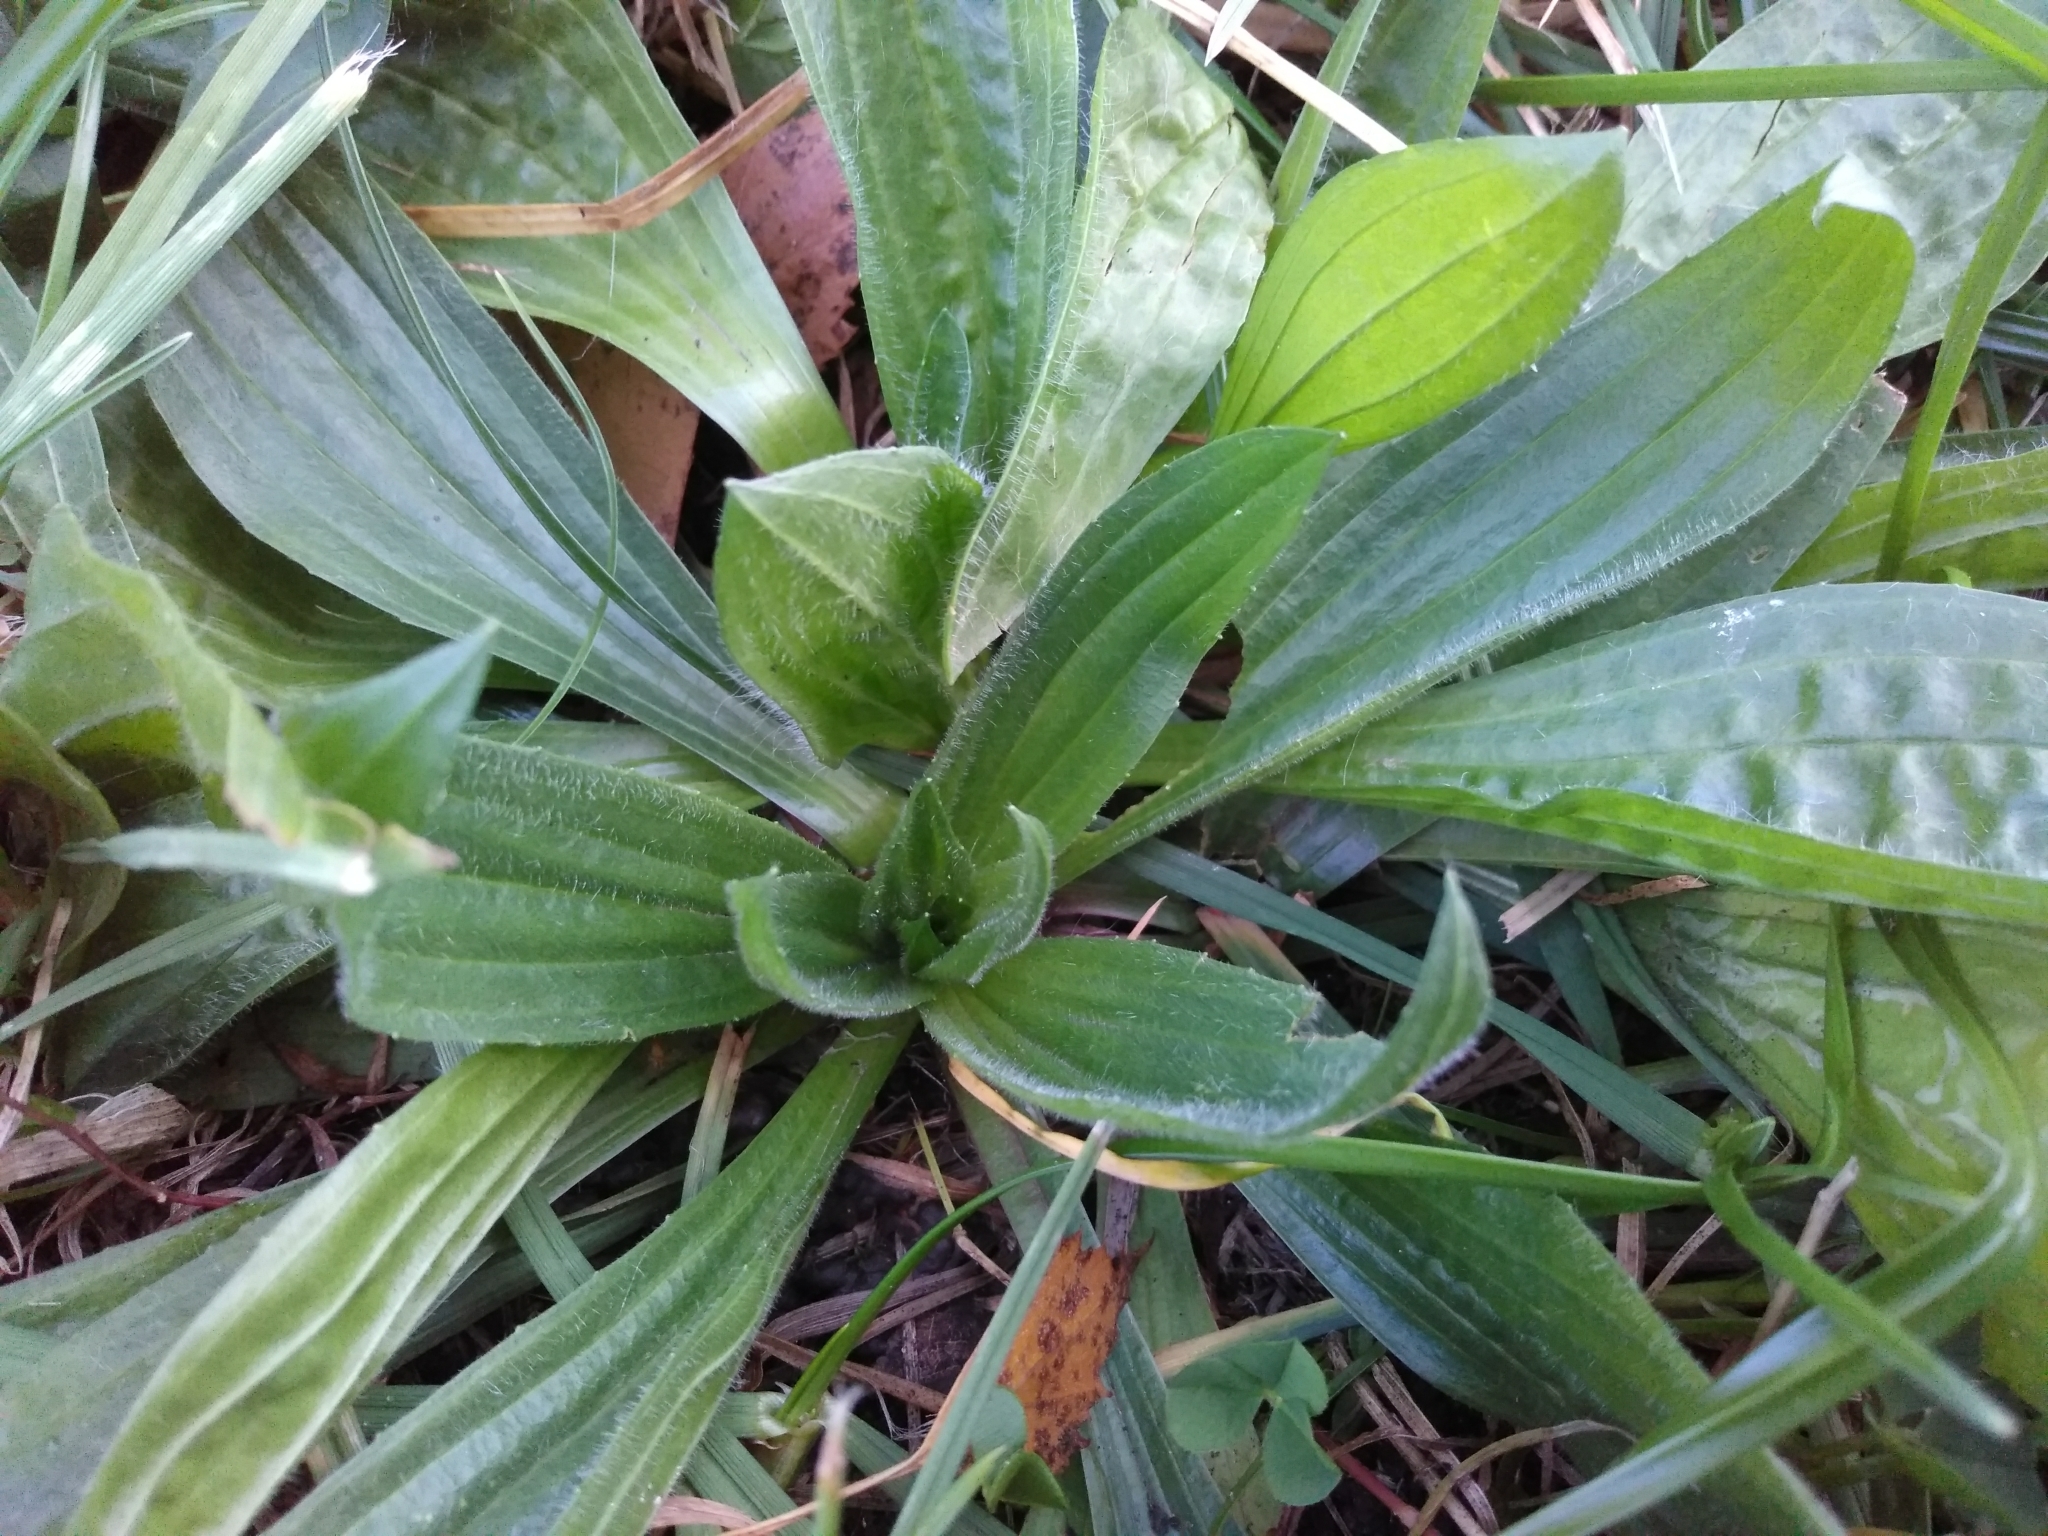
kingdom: Plantae
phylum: Tracheophyta
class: Magnoliopsida
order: Lamiales
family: Plantaginaceae
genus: Plantago
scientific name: Plantago lanceolata
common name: Ribwort plantain
